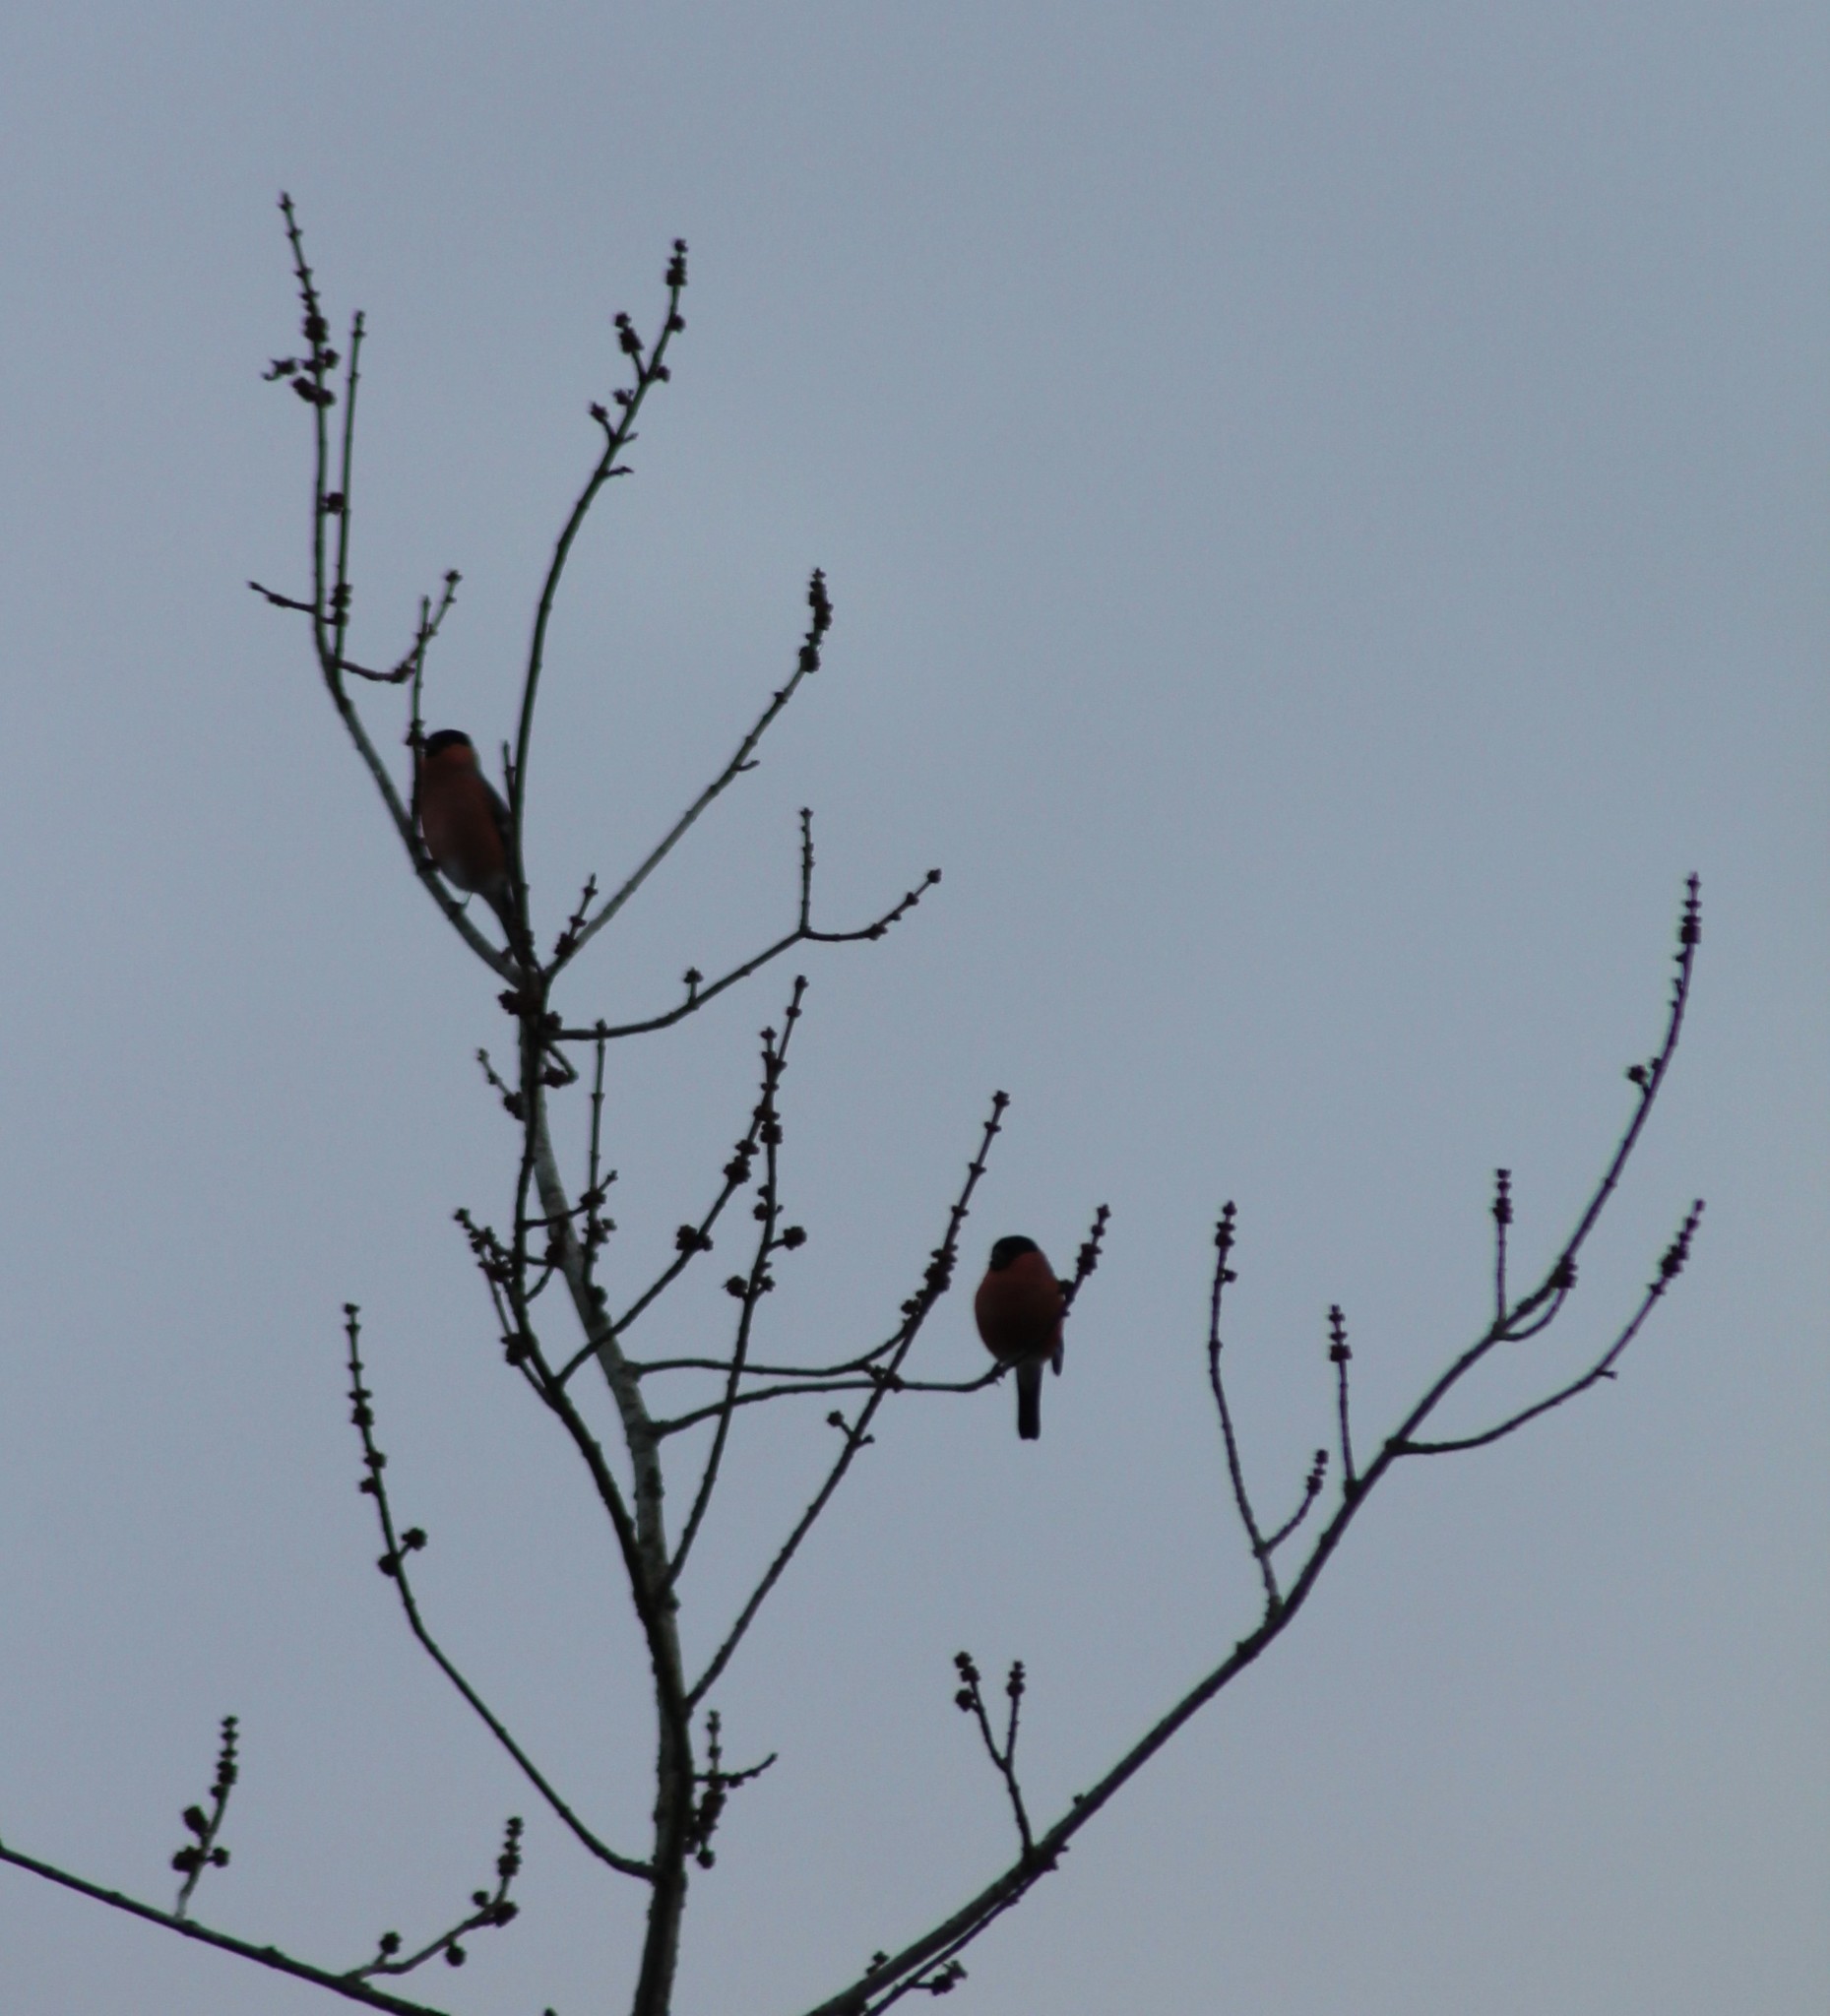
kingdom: Animalia
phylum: Chordata
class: Aves
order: Passeriformes
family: Fringillidae
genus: Pyrrhula
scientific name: Pyrrhula pyrrhula
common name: Eurasian bullfinch
